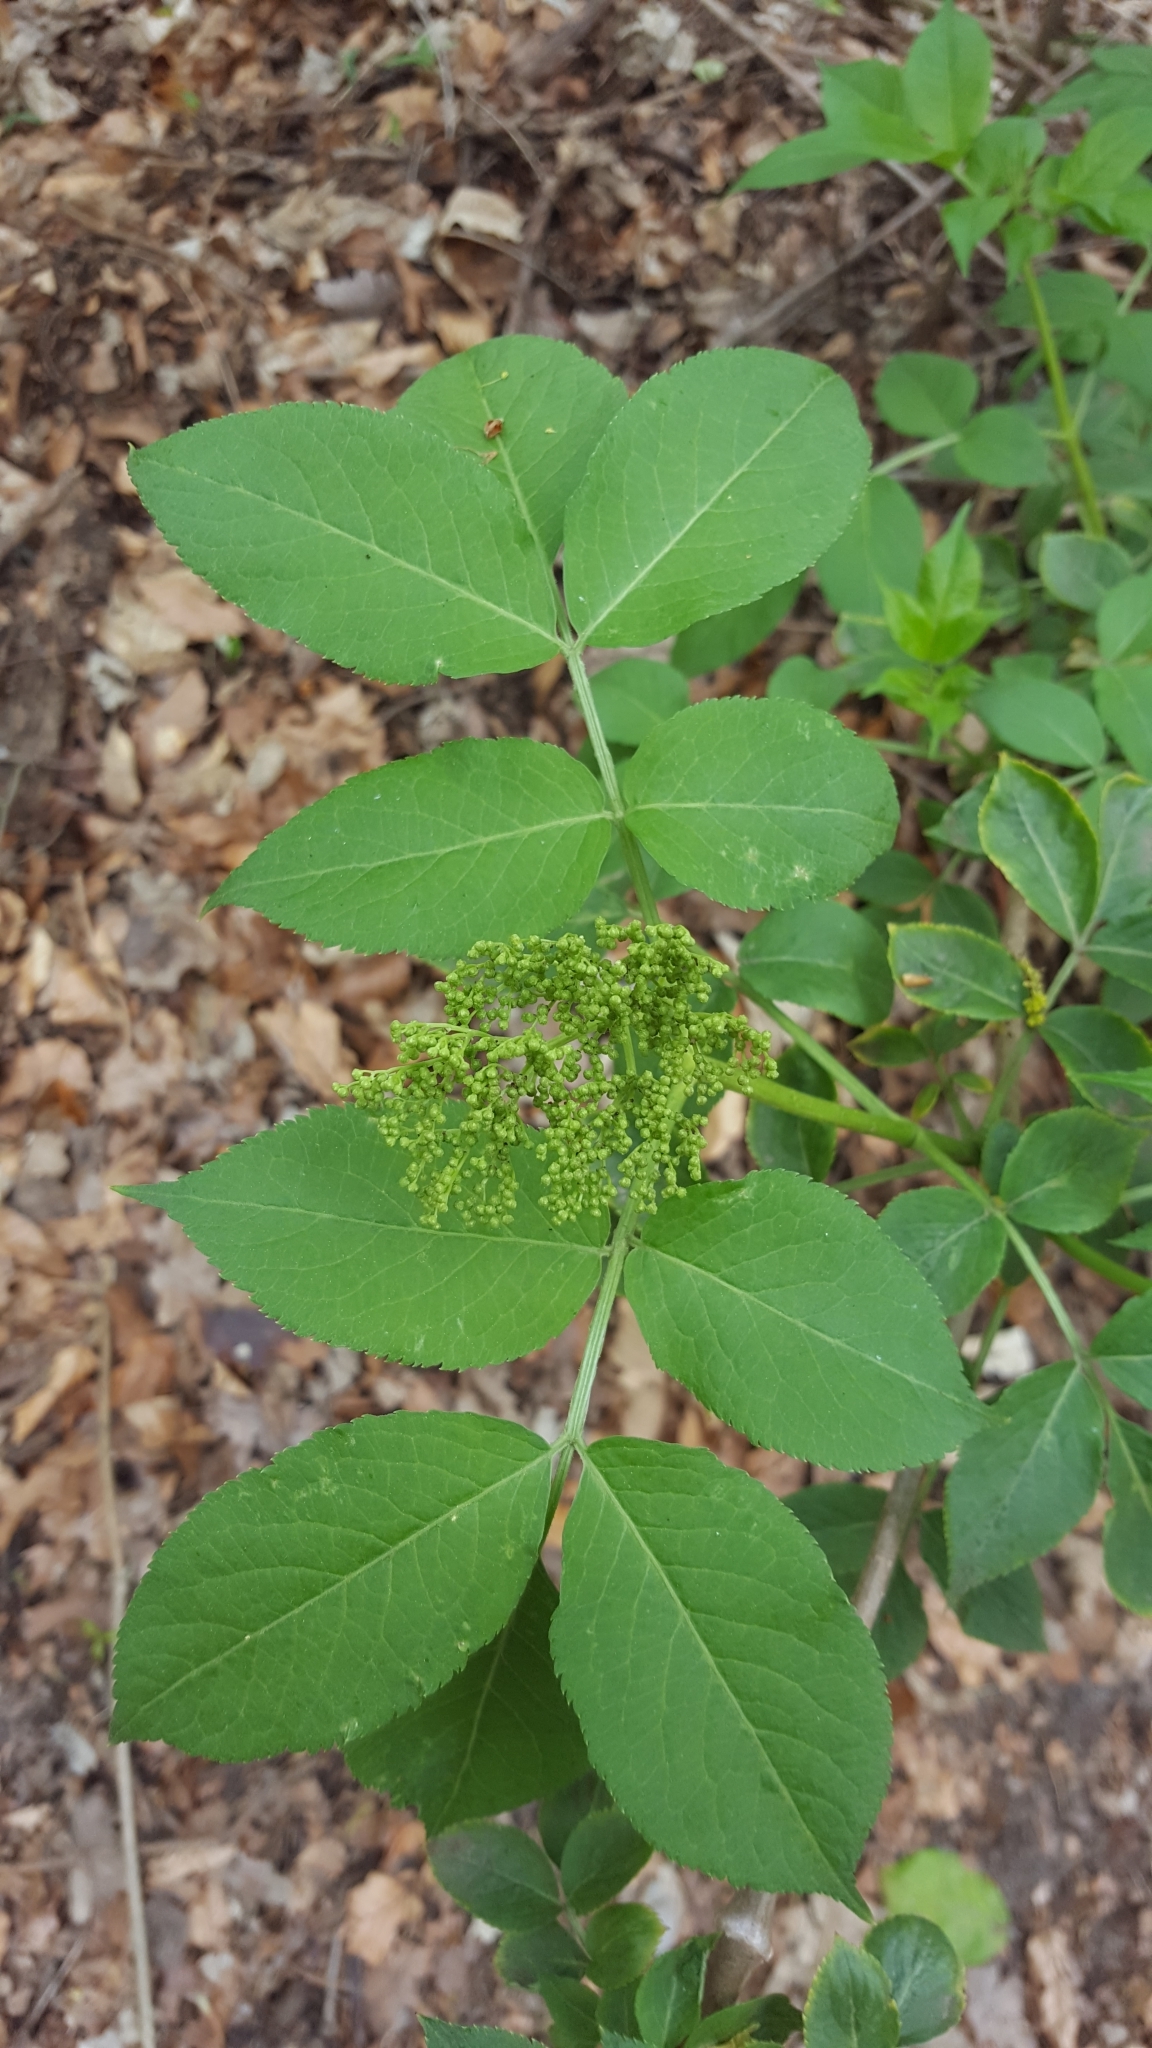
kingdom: Plantae
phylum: Tracheophyta
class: Magnoliopsida
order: Dipsacales
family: Viburnaceae
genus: Sambucus
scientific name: Sambucus nigra
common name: Elder
